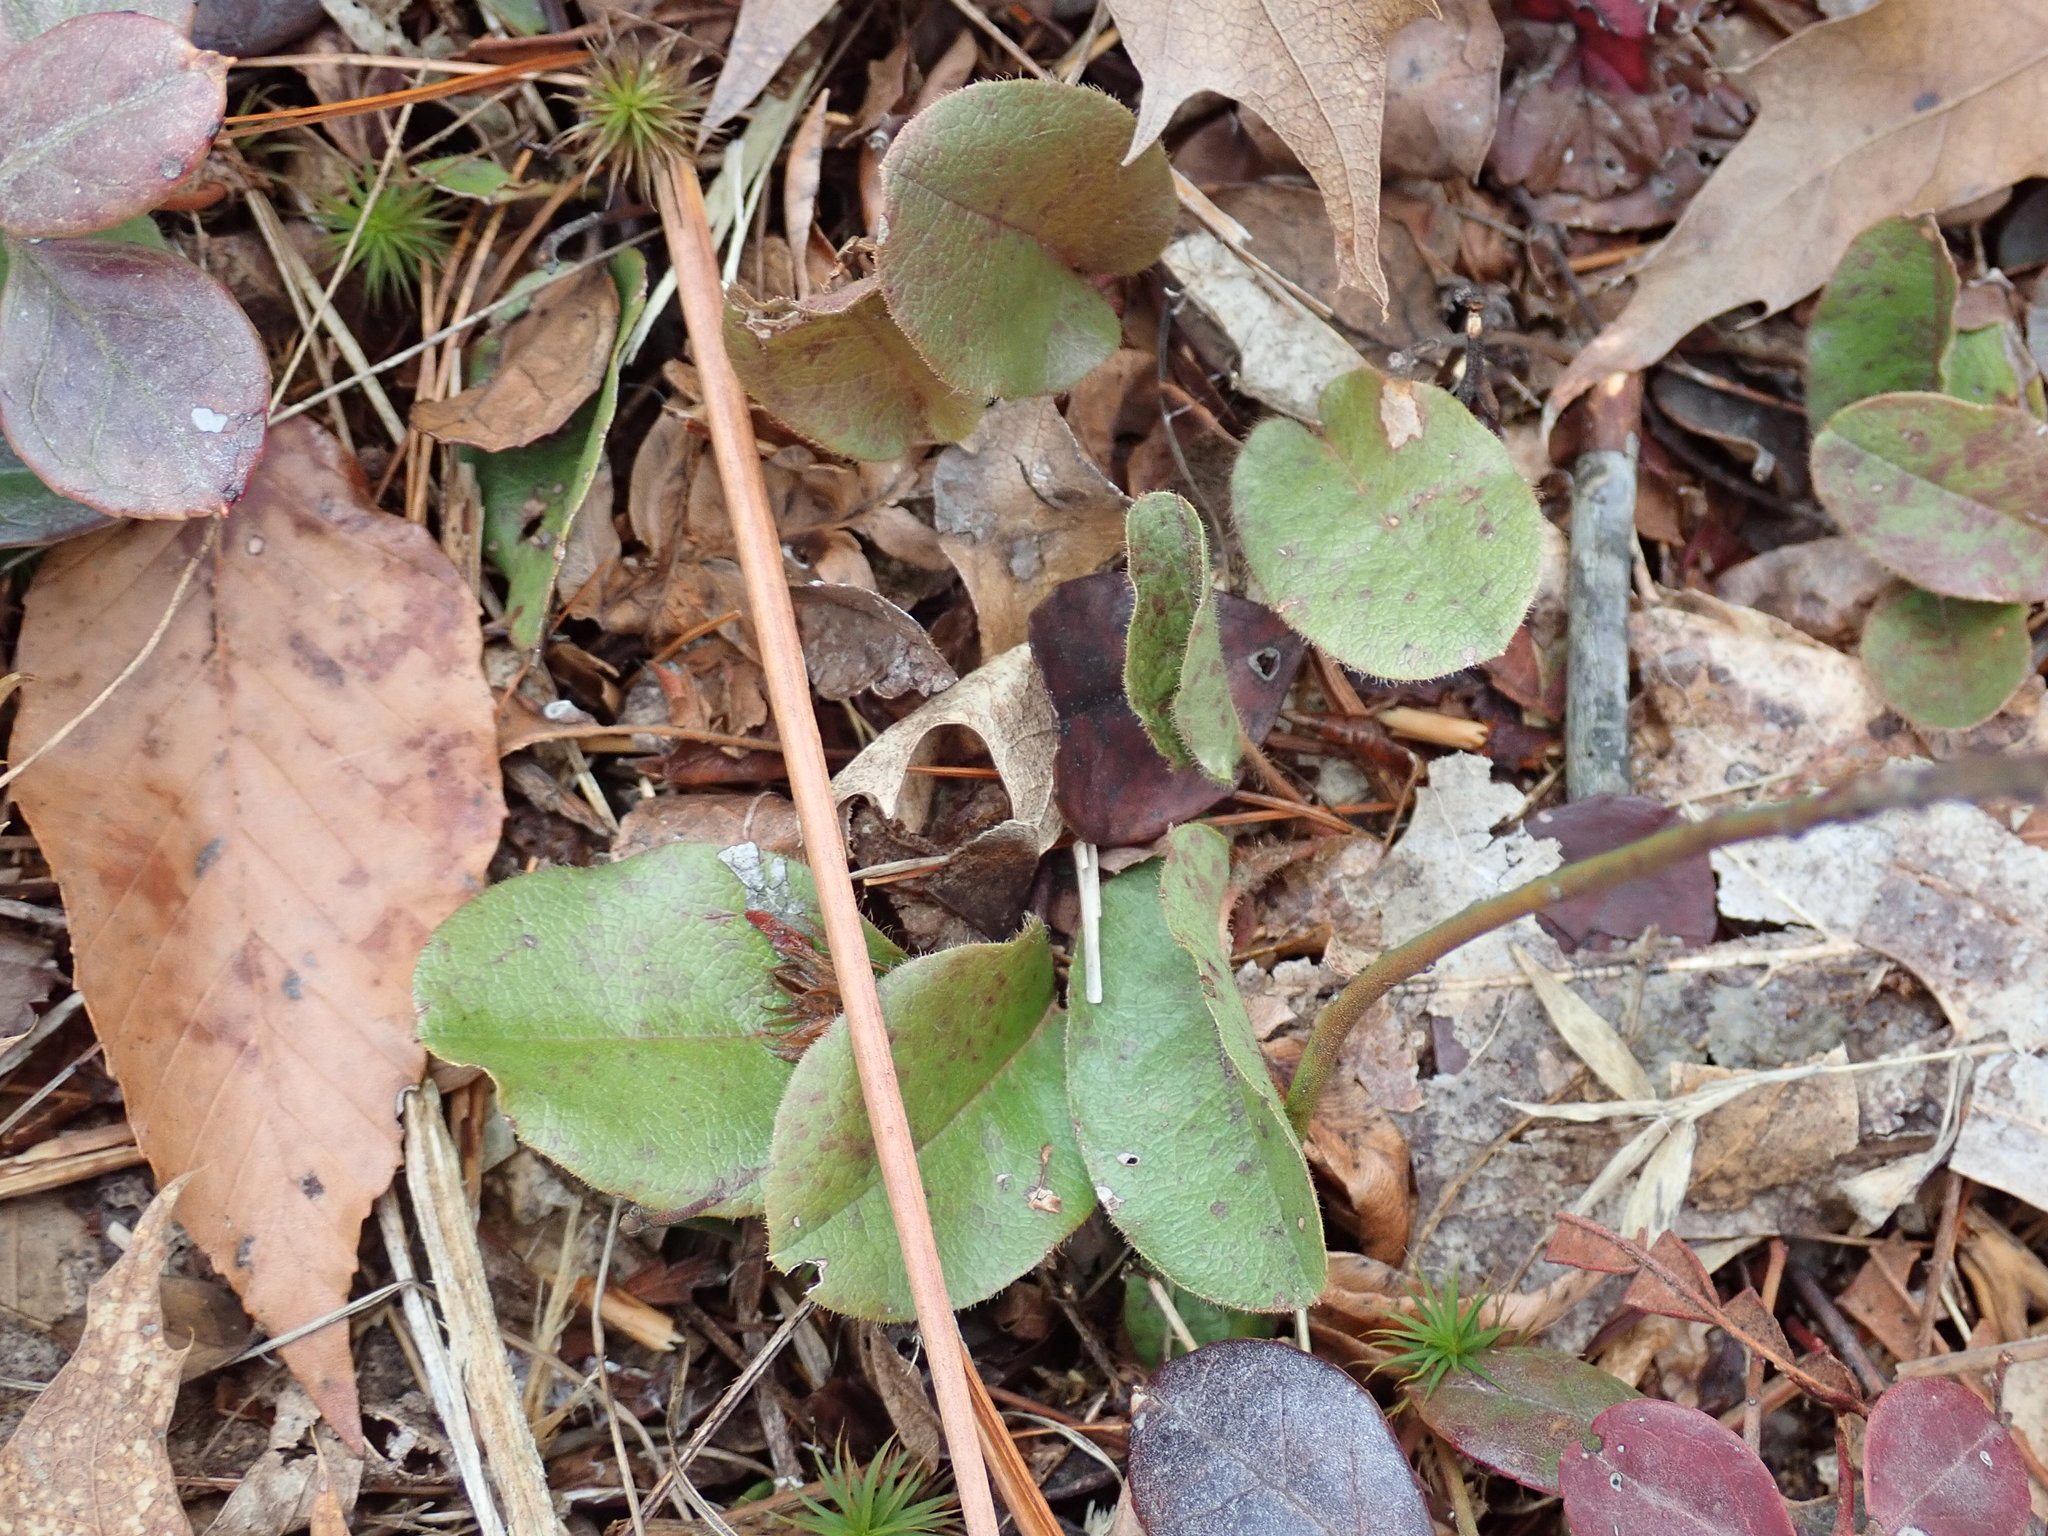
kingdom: Plantae
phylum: Tracheophyta
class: Magnoliopsida
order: Ericales
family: Ericaceae
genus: Epigaea
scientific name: Epigaea repens
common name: Gravelroot
